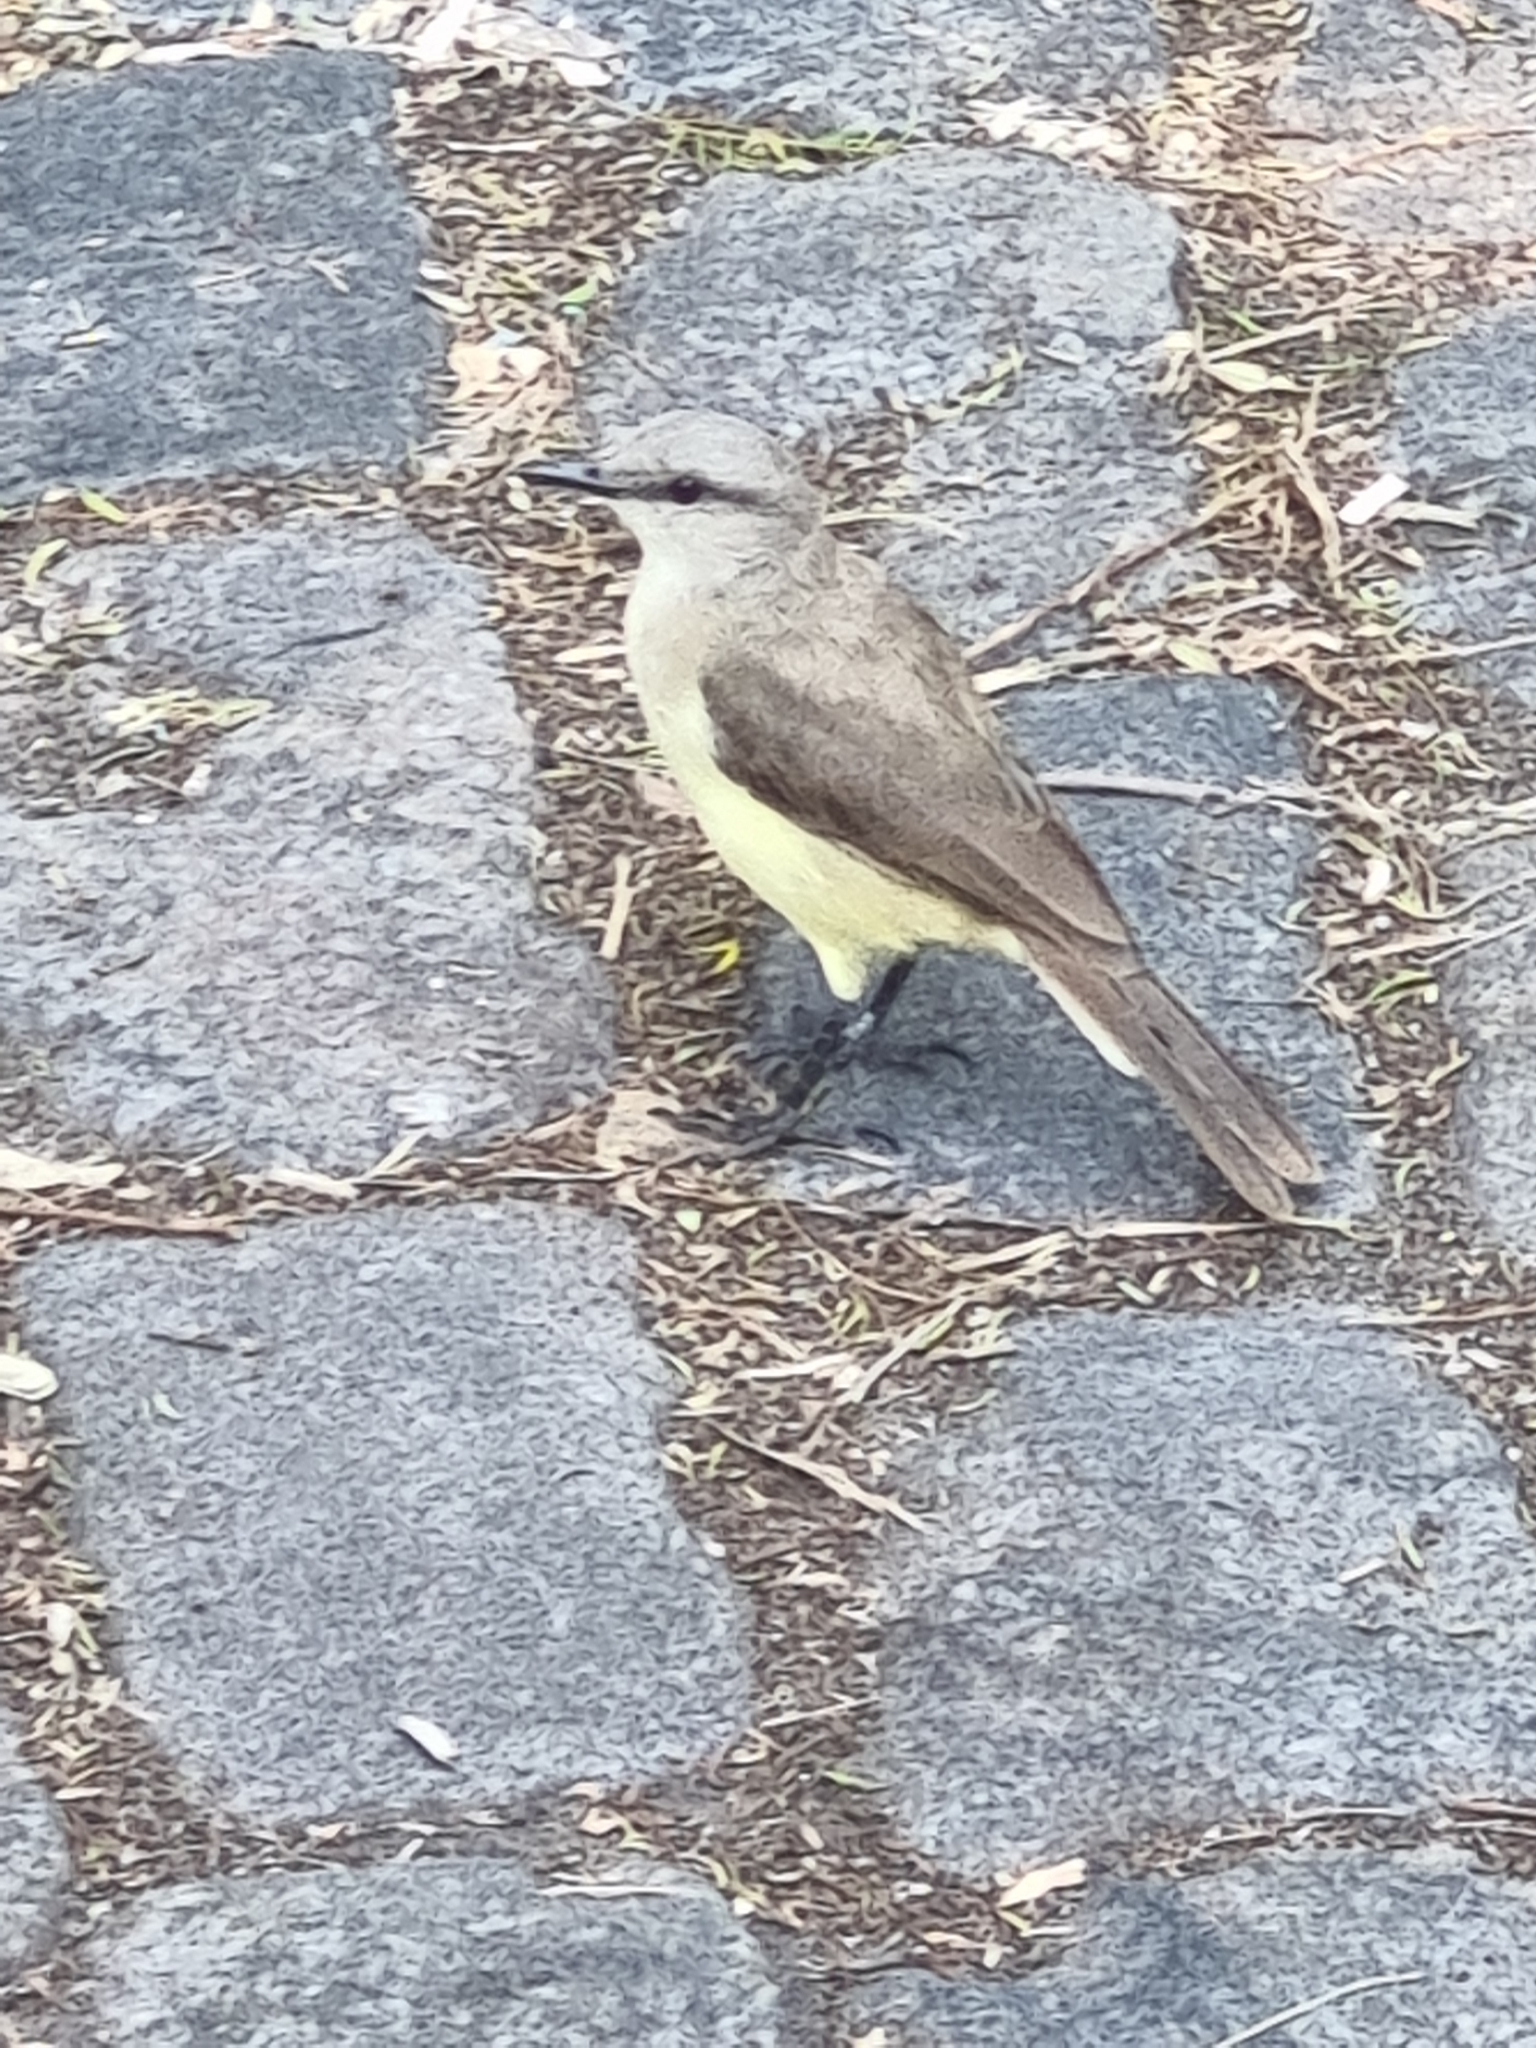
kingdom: Animalia
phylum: Chordata
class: Aves
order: Passeriformes
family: Tyrannidae
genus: Machetornis
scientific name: Machetornis rixosa
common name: Cattle tyrant
